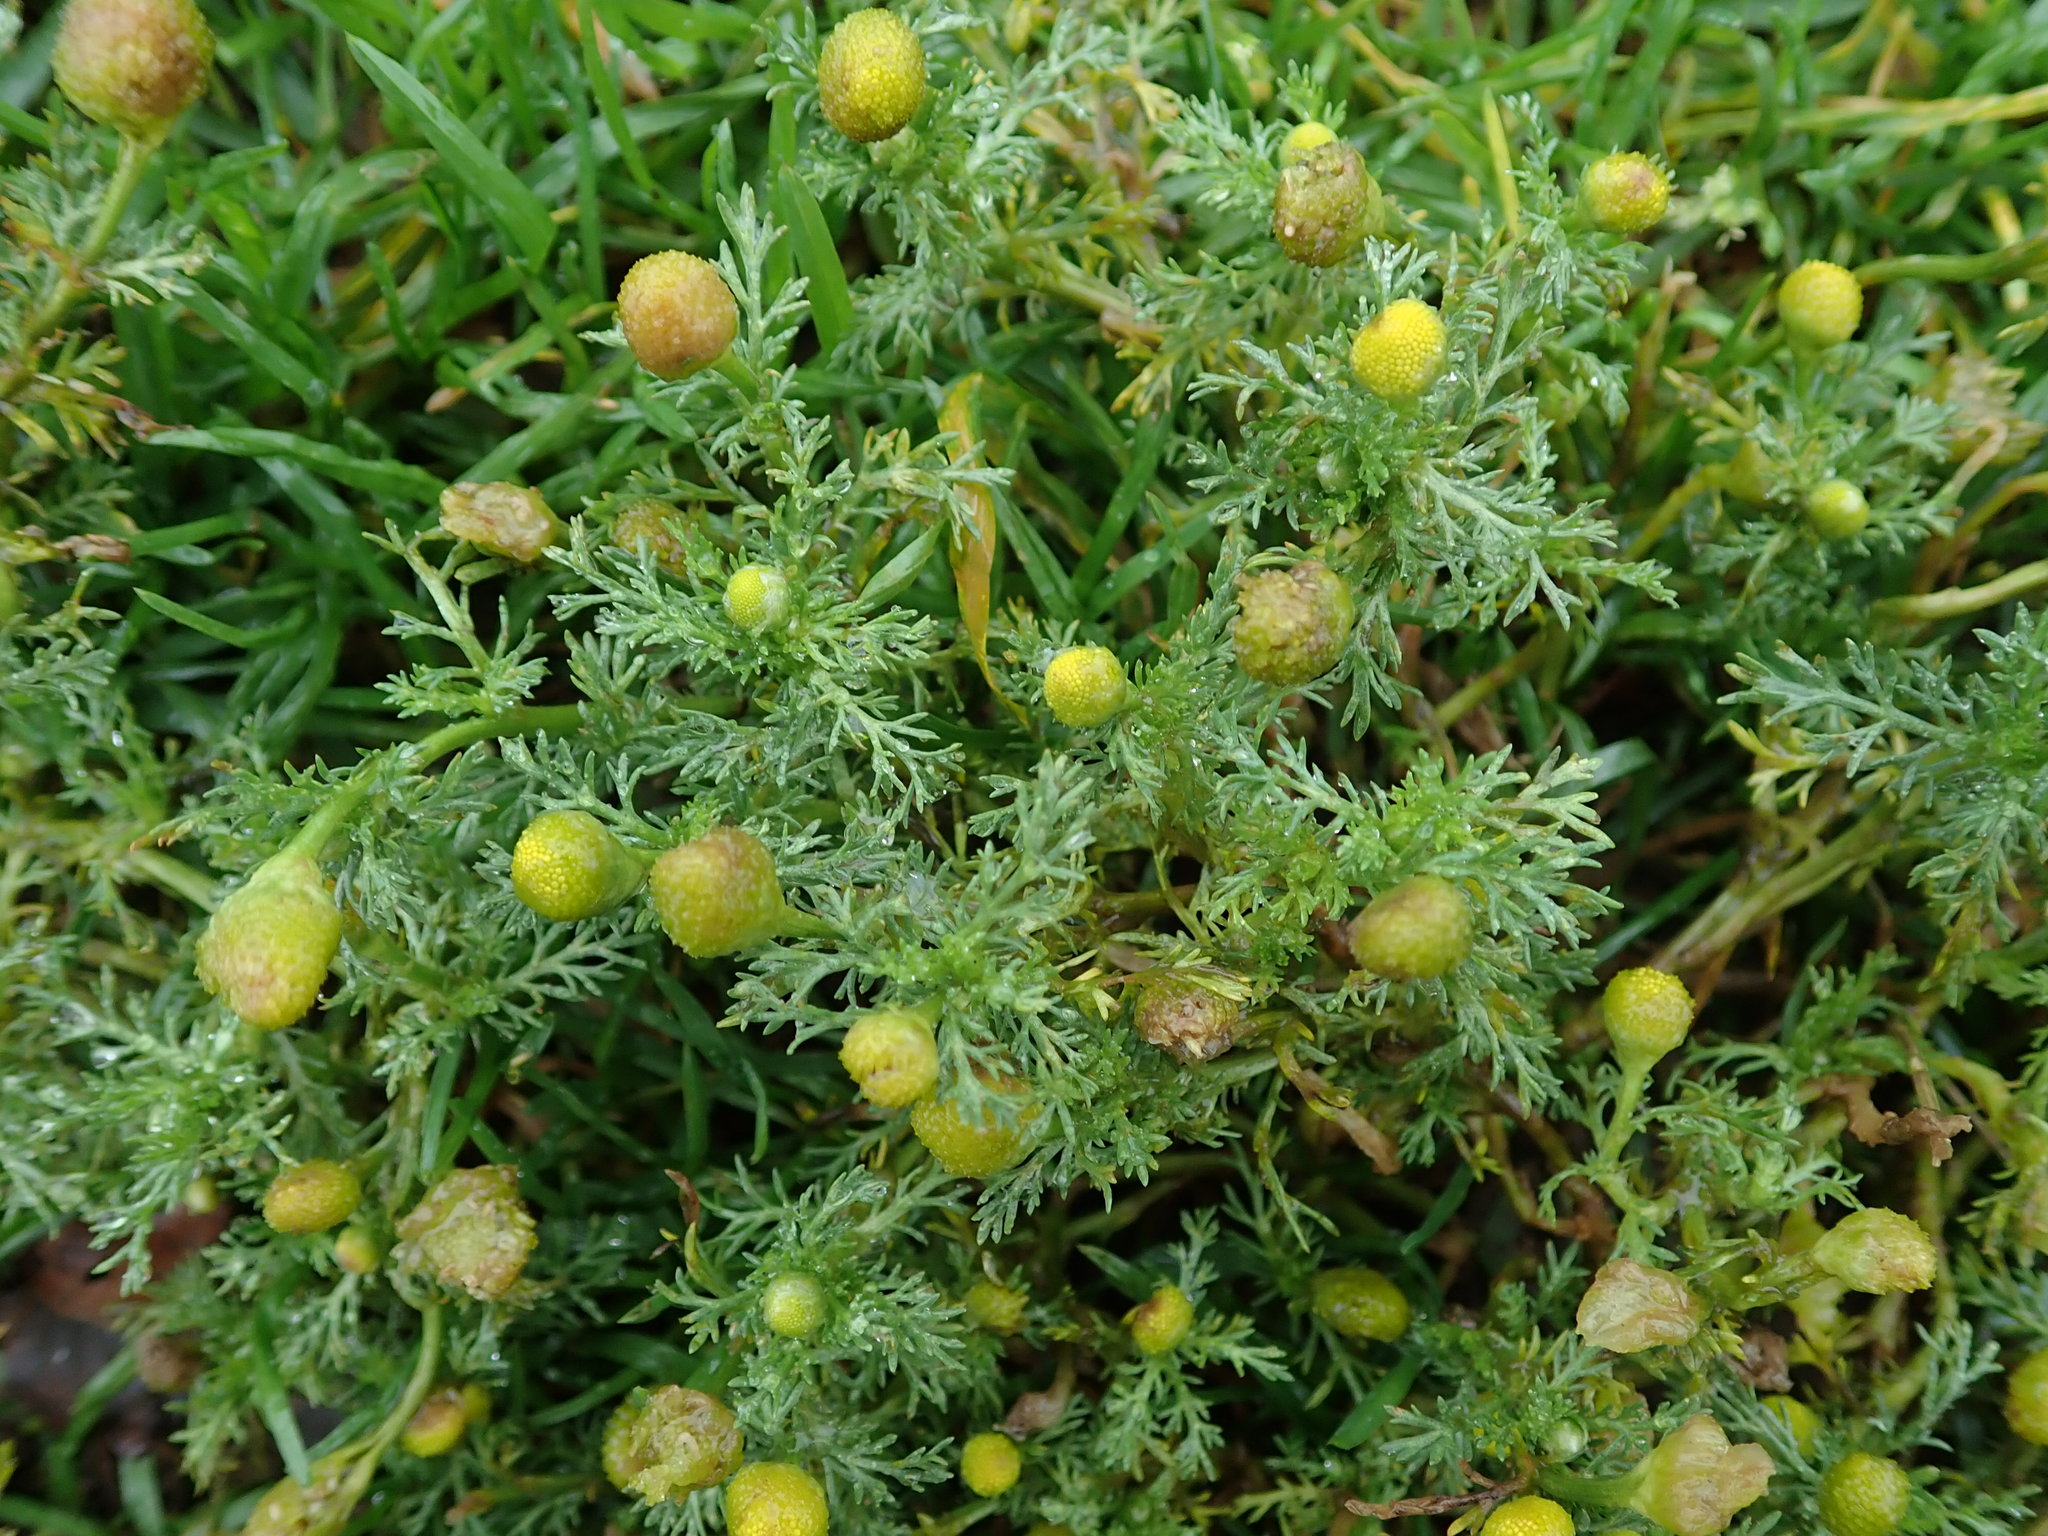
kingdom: Plantae
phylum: Tracheophyta
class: Magnoliopsida
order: Asterales
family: Asteraceae
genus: Matricaria
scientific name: Matricaria discoidea
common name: Disc mayweed
